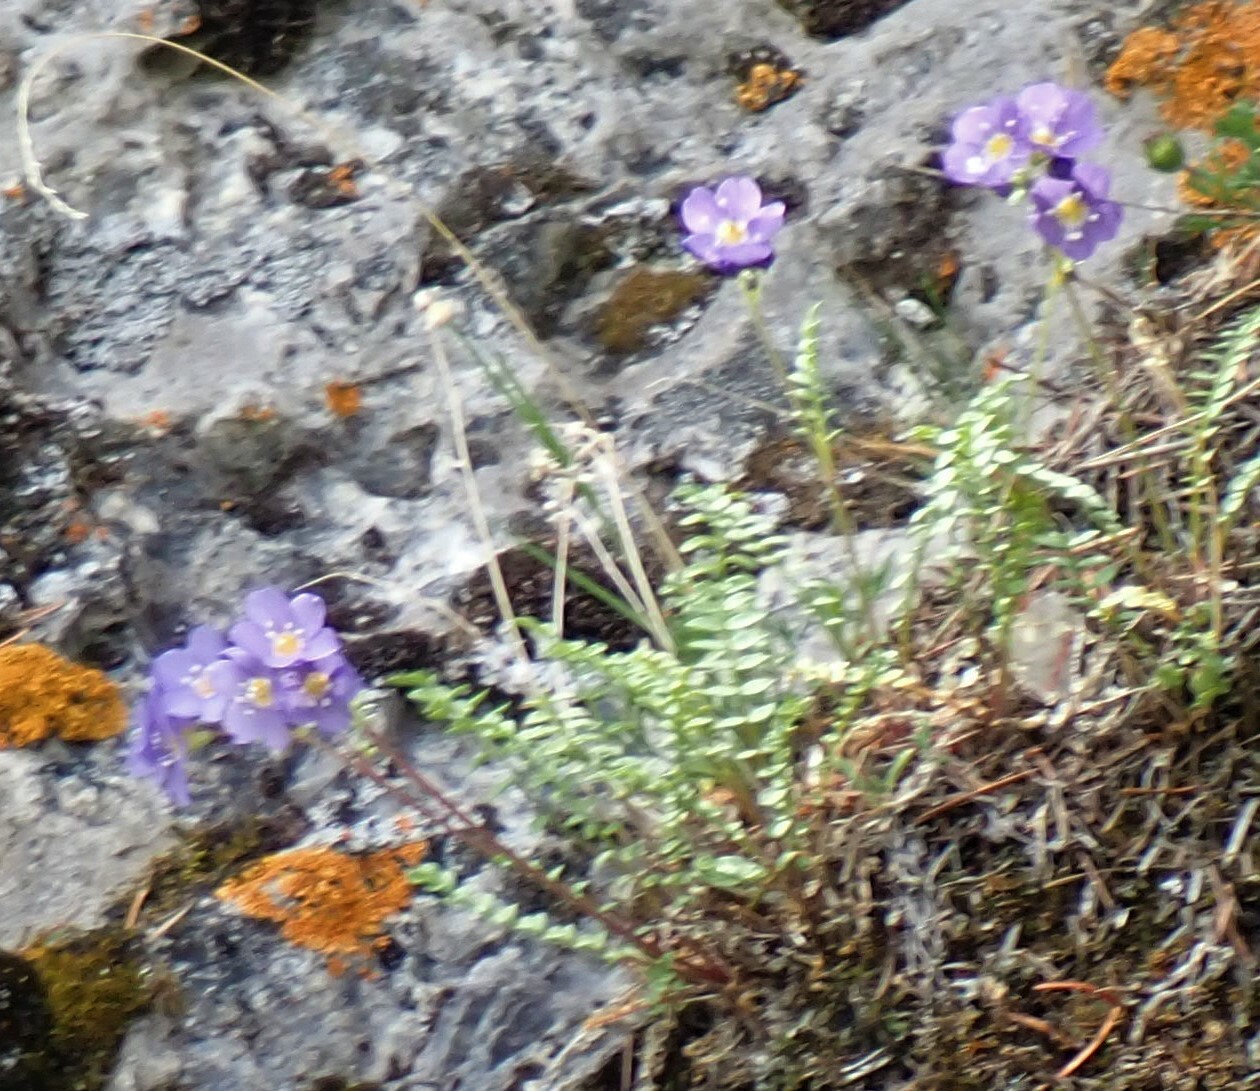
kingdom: Plantae
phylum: Tracheophyta
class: Magnoliopsida
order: Ericales
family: Polemoniaceae
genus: Polemonium
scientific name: Polemonium pulcherrimum
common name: Short jacob's-ladder
